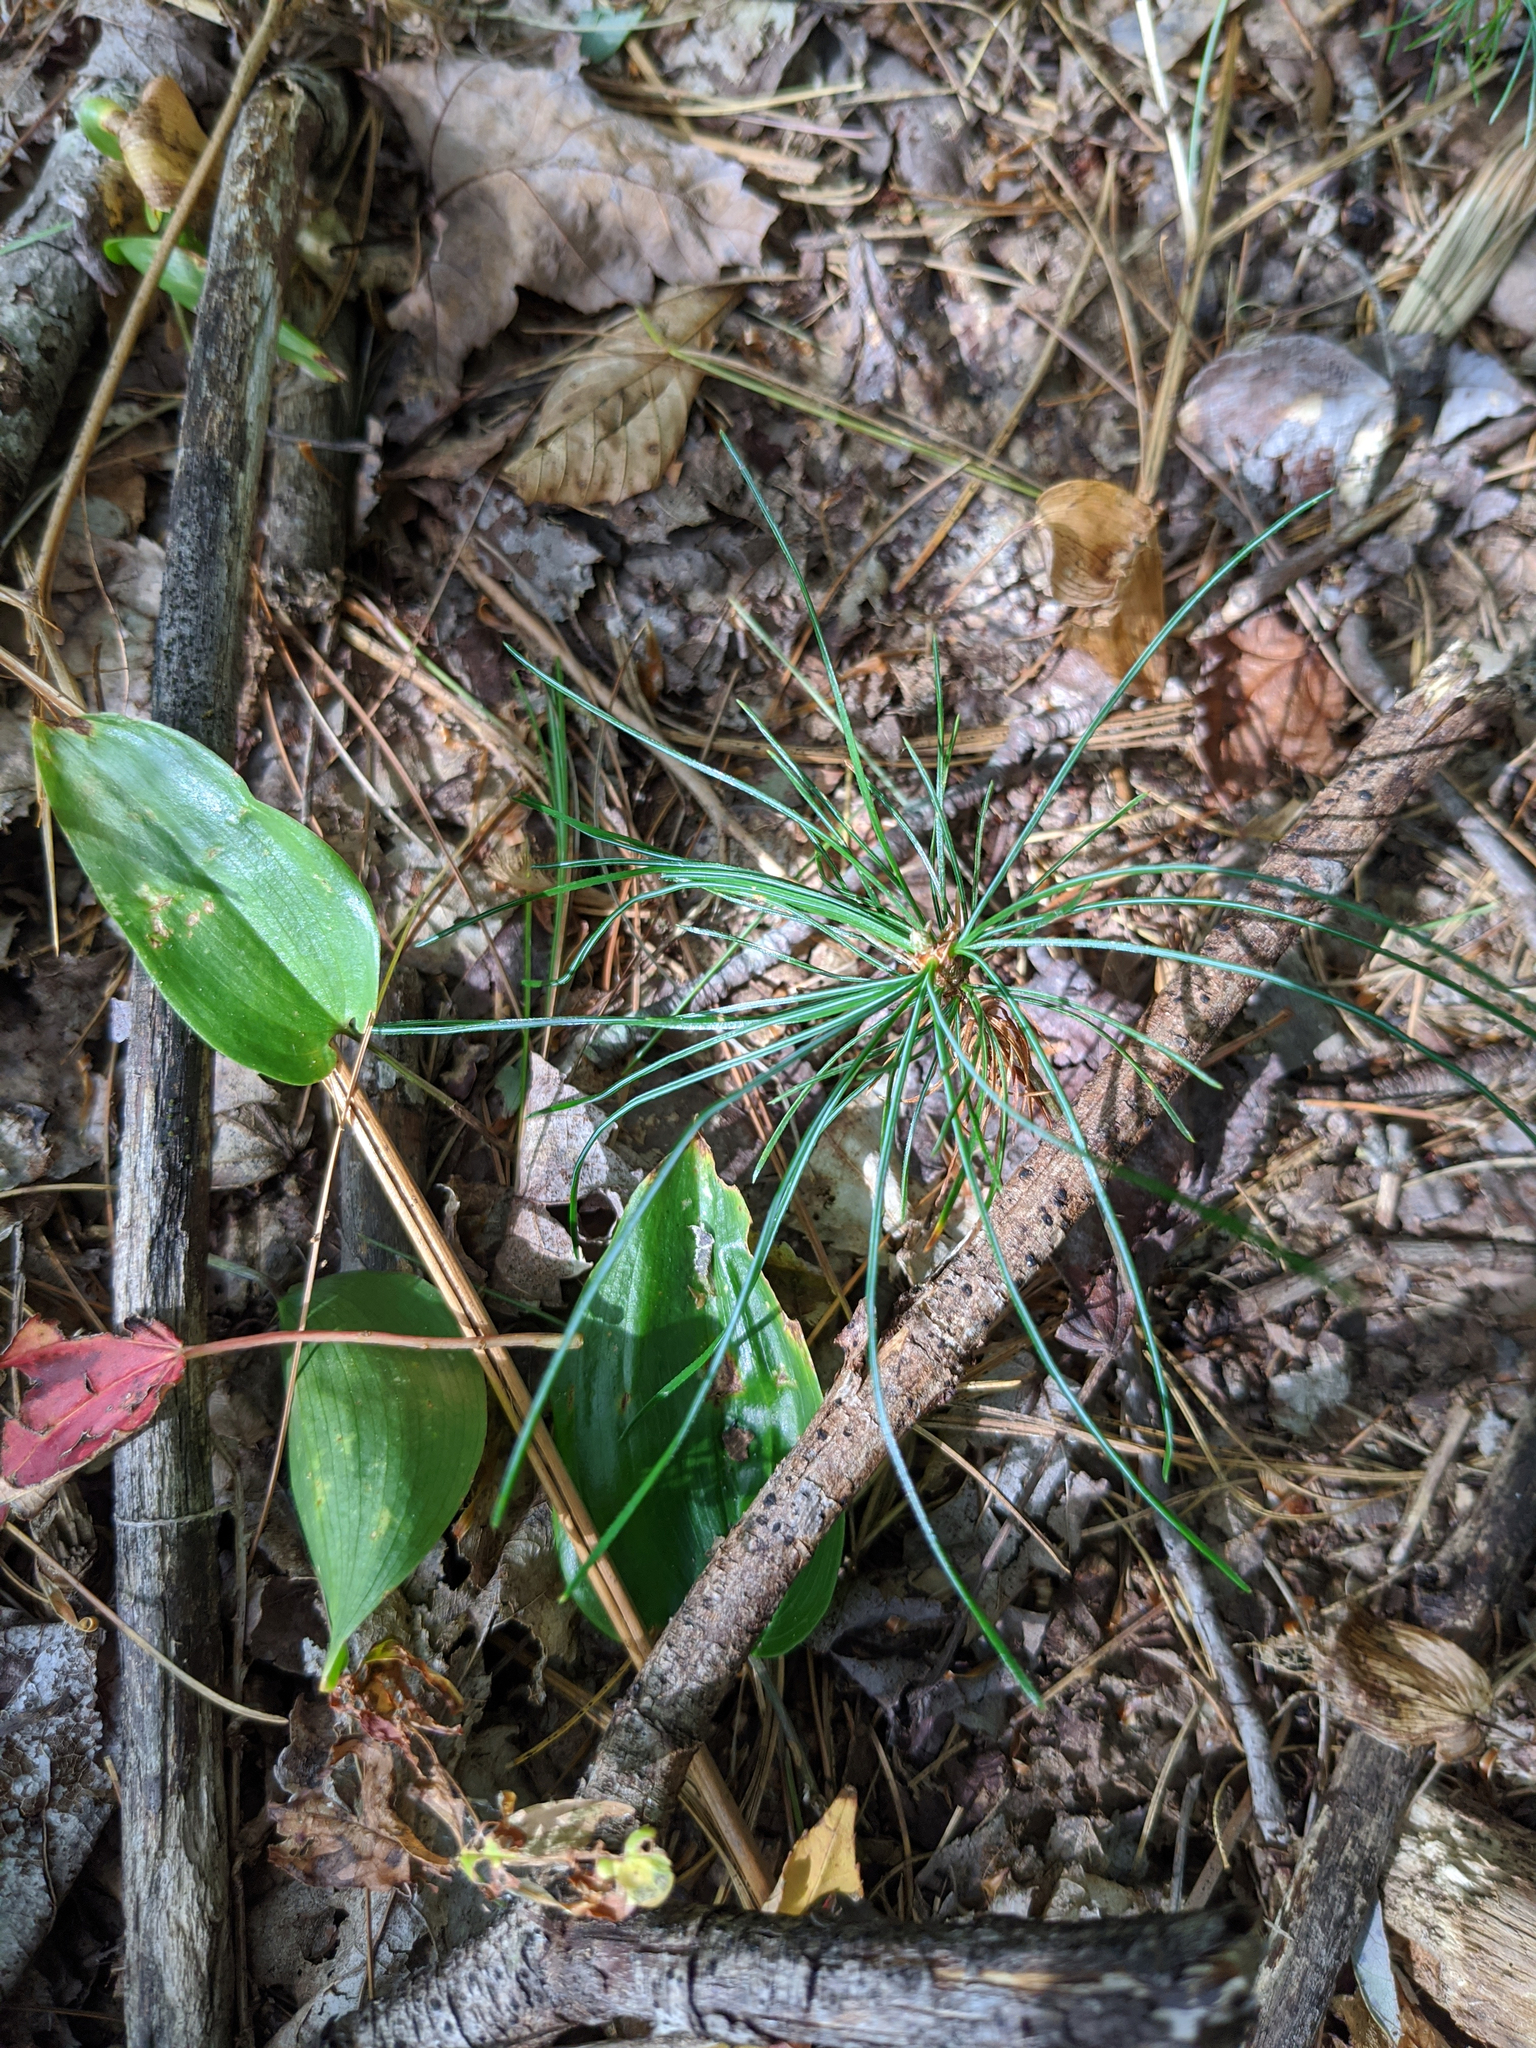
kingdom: Plantae
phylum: Tracheophyta
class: Pinopsida
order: Pinales
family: Pinaceae
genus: Pinus
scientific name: Pinus strobus
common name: Weymouth pine
